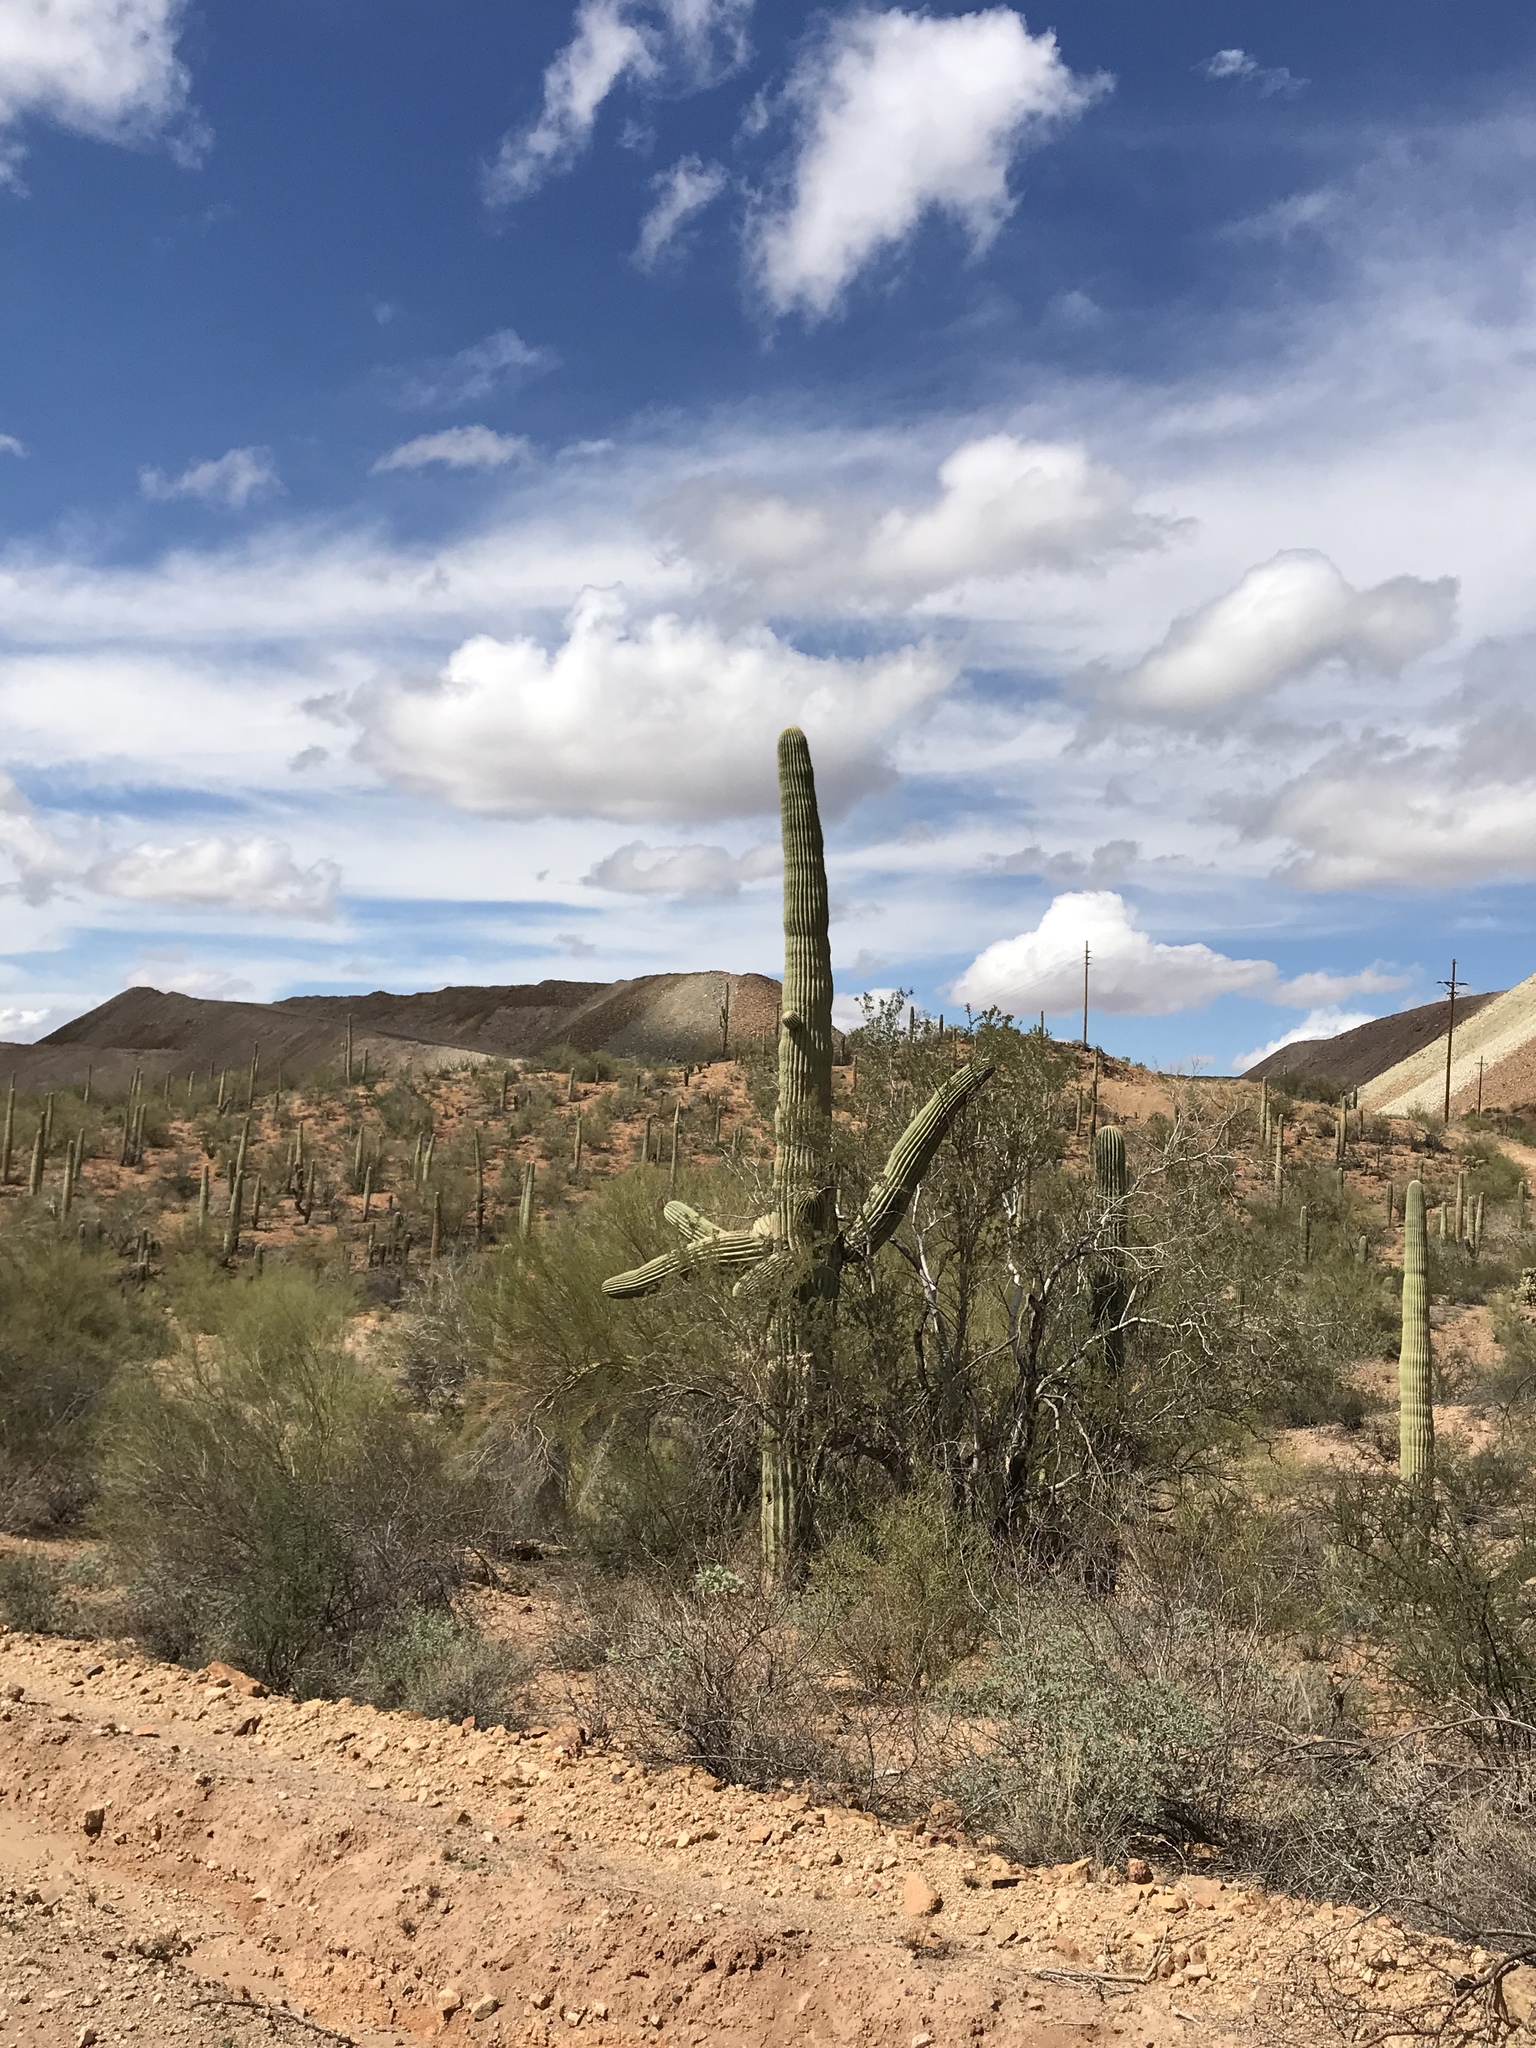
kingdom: Plantae
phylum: Tracheophyta
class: Magnoliopsida
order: Caryophyllales
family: Cactaceae
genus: Carnegiea
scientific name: Carnegiea gigantea
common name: Saguaro
